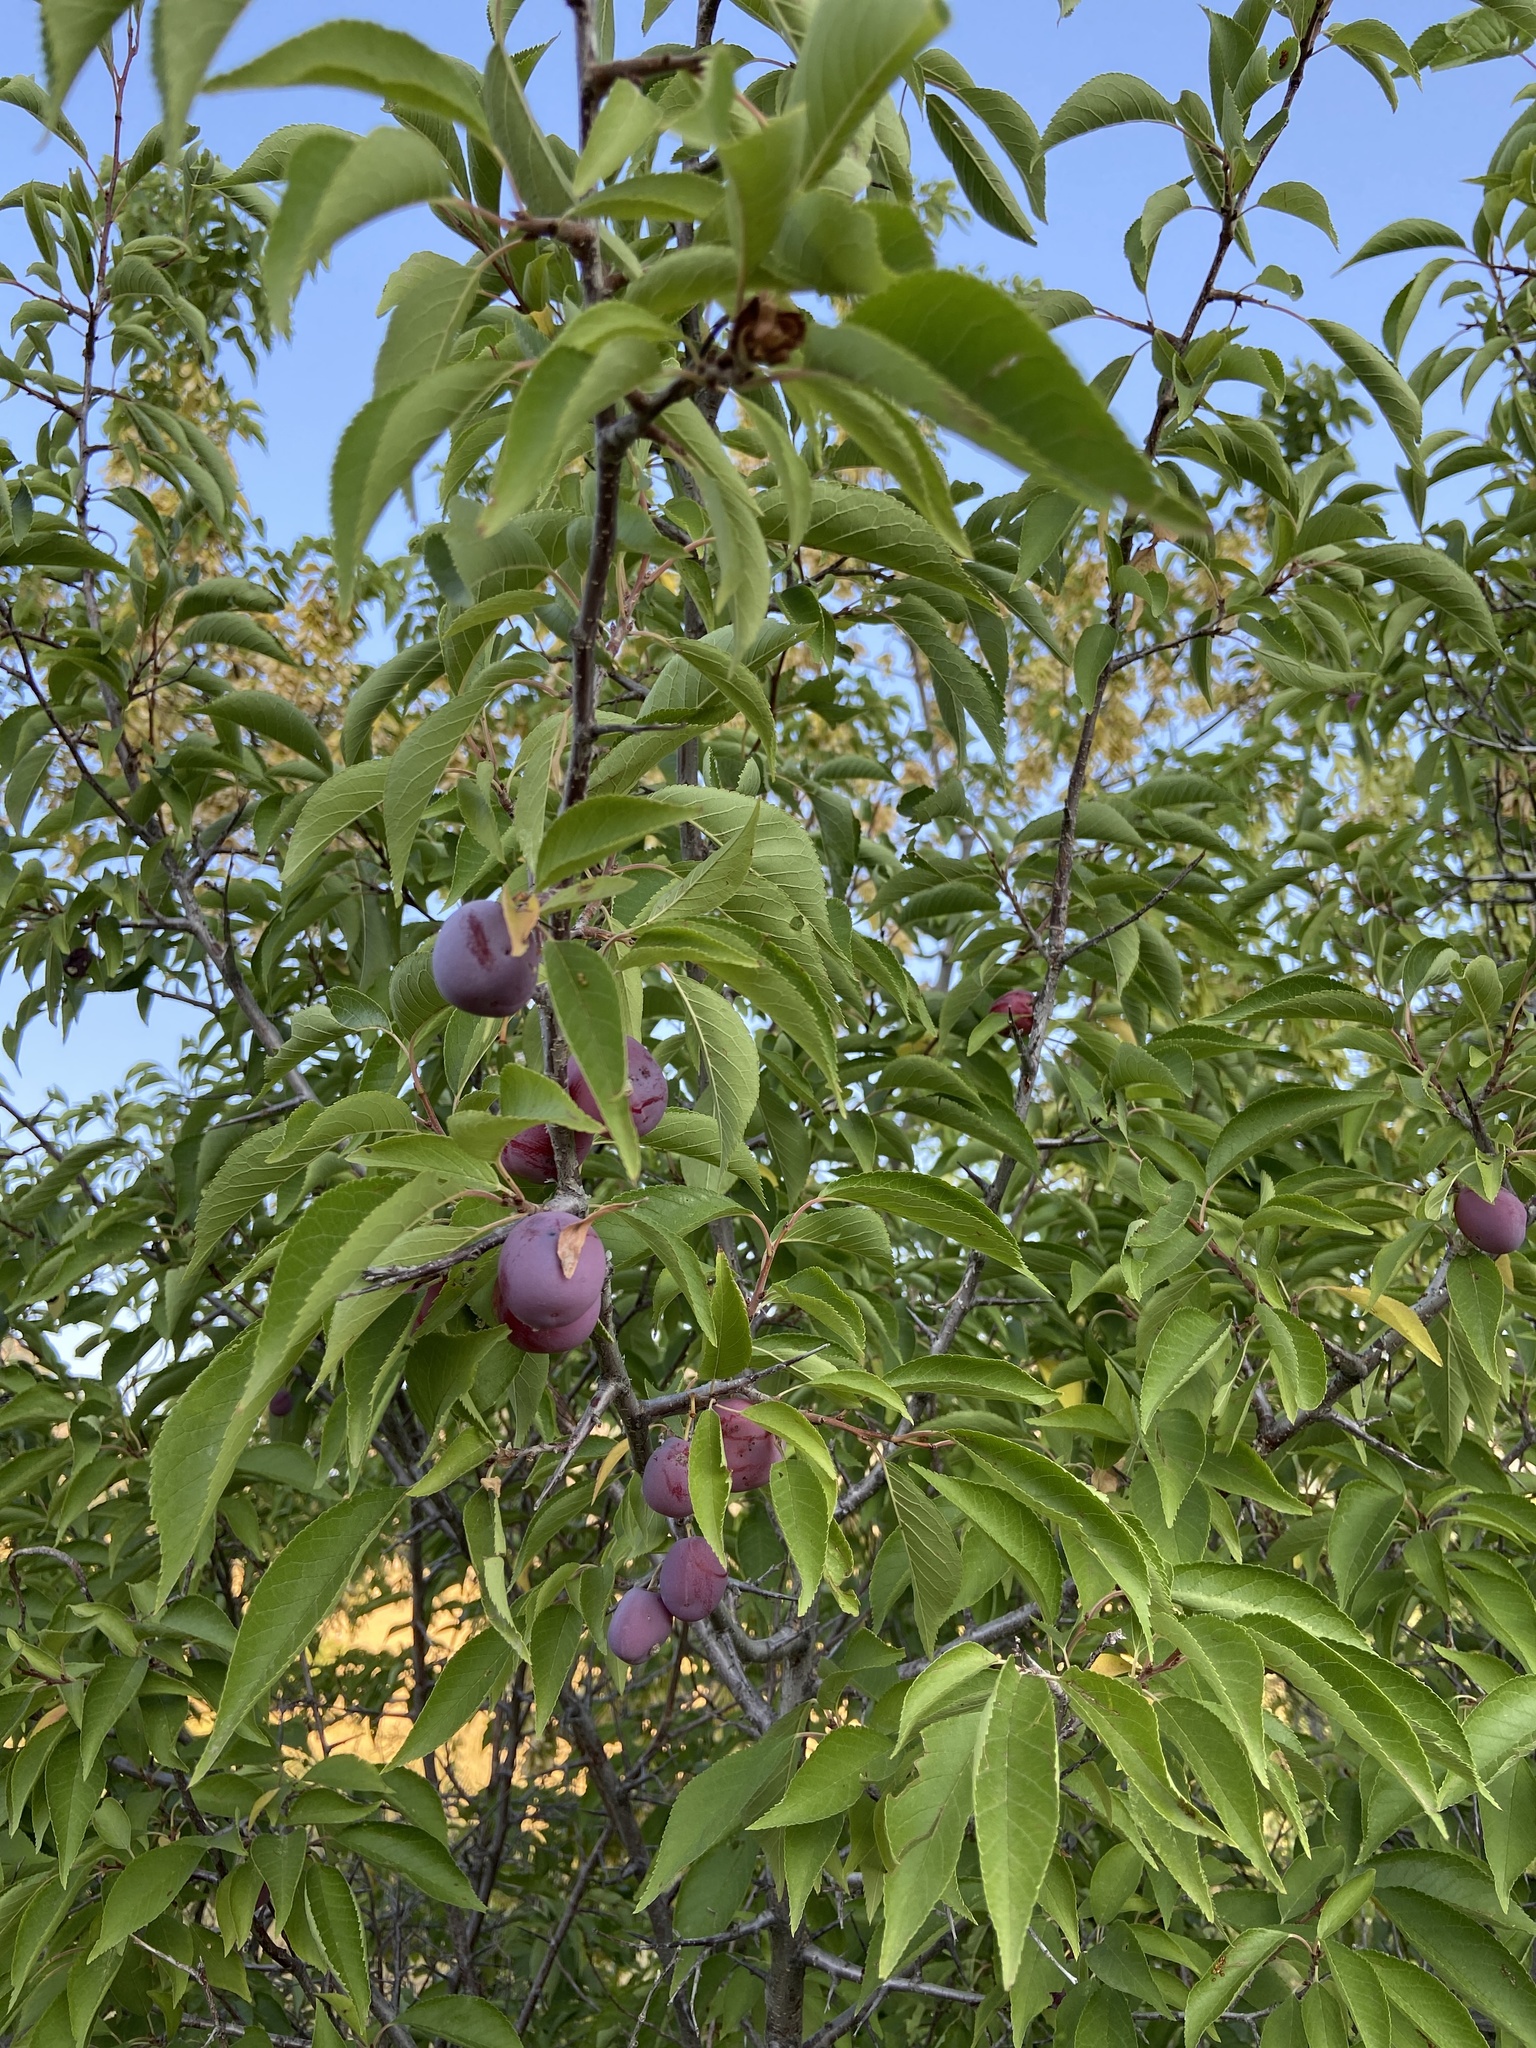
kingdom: Plantae
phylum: Tracheophyta
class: Magnoliopsida
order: Rosales
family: Rosaceae
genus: Prunus
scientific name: Prunus americana
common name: American plum
